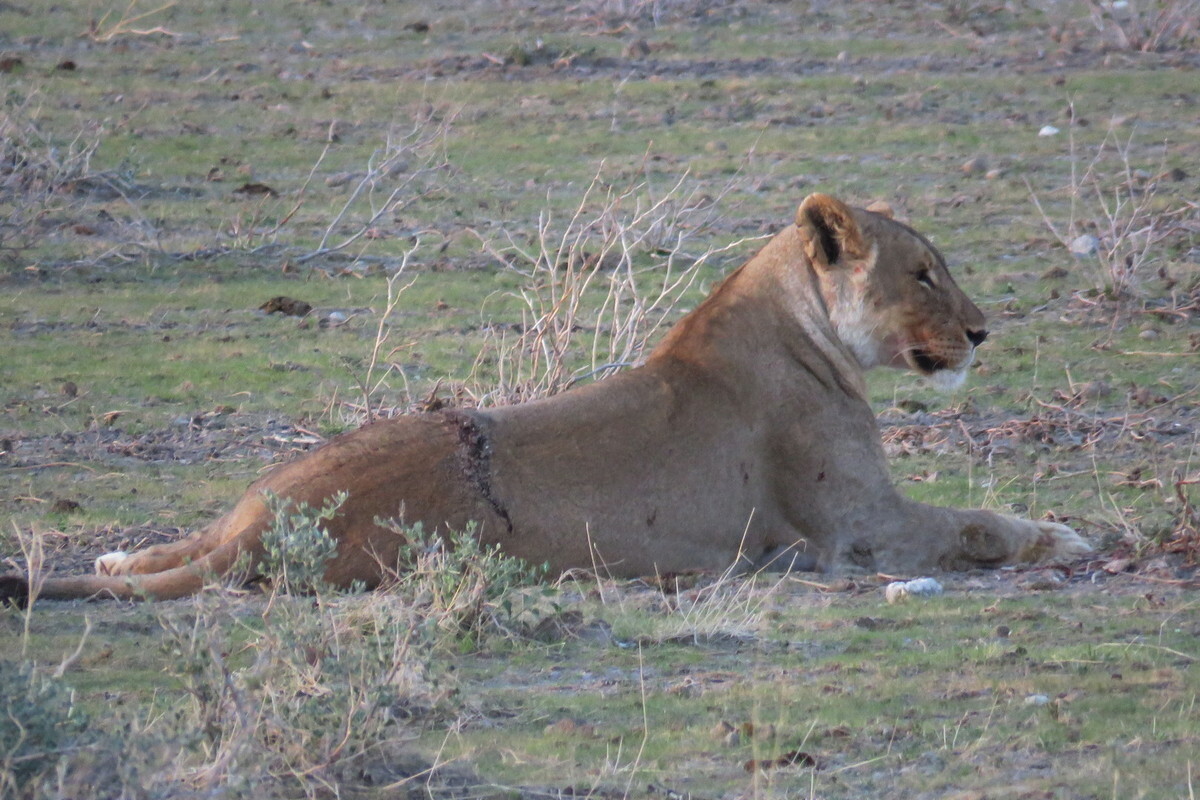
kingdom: Animalia
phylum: Chordata
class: Mammalia
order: Carnivora
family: Felidae
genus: Panthera
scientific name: Panthera leo
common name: Lion
